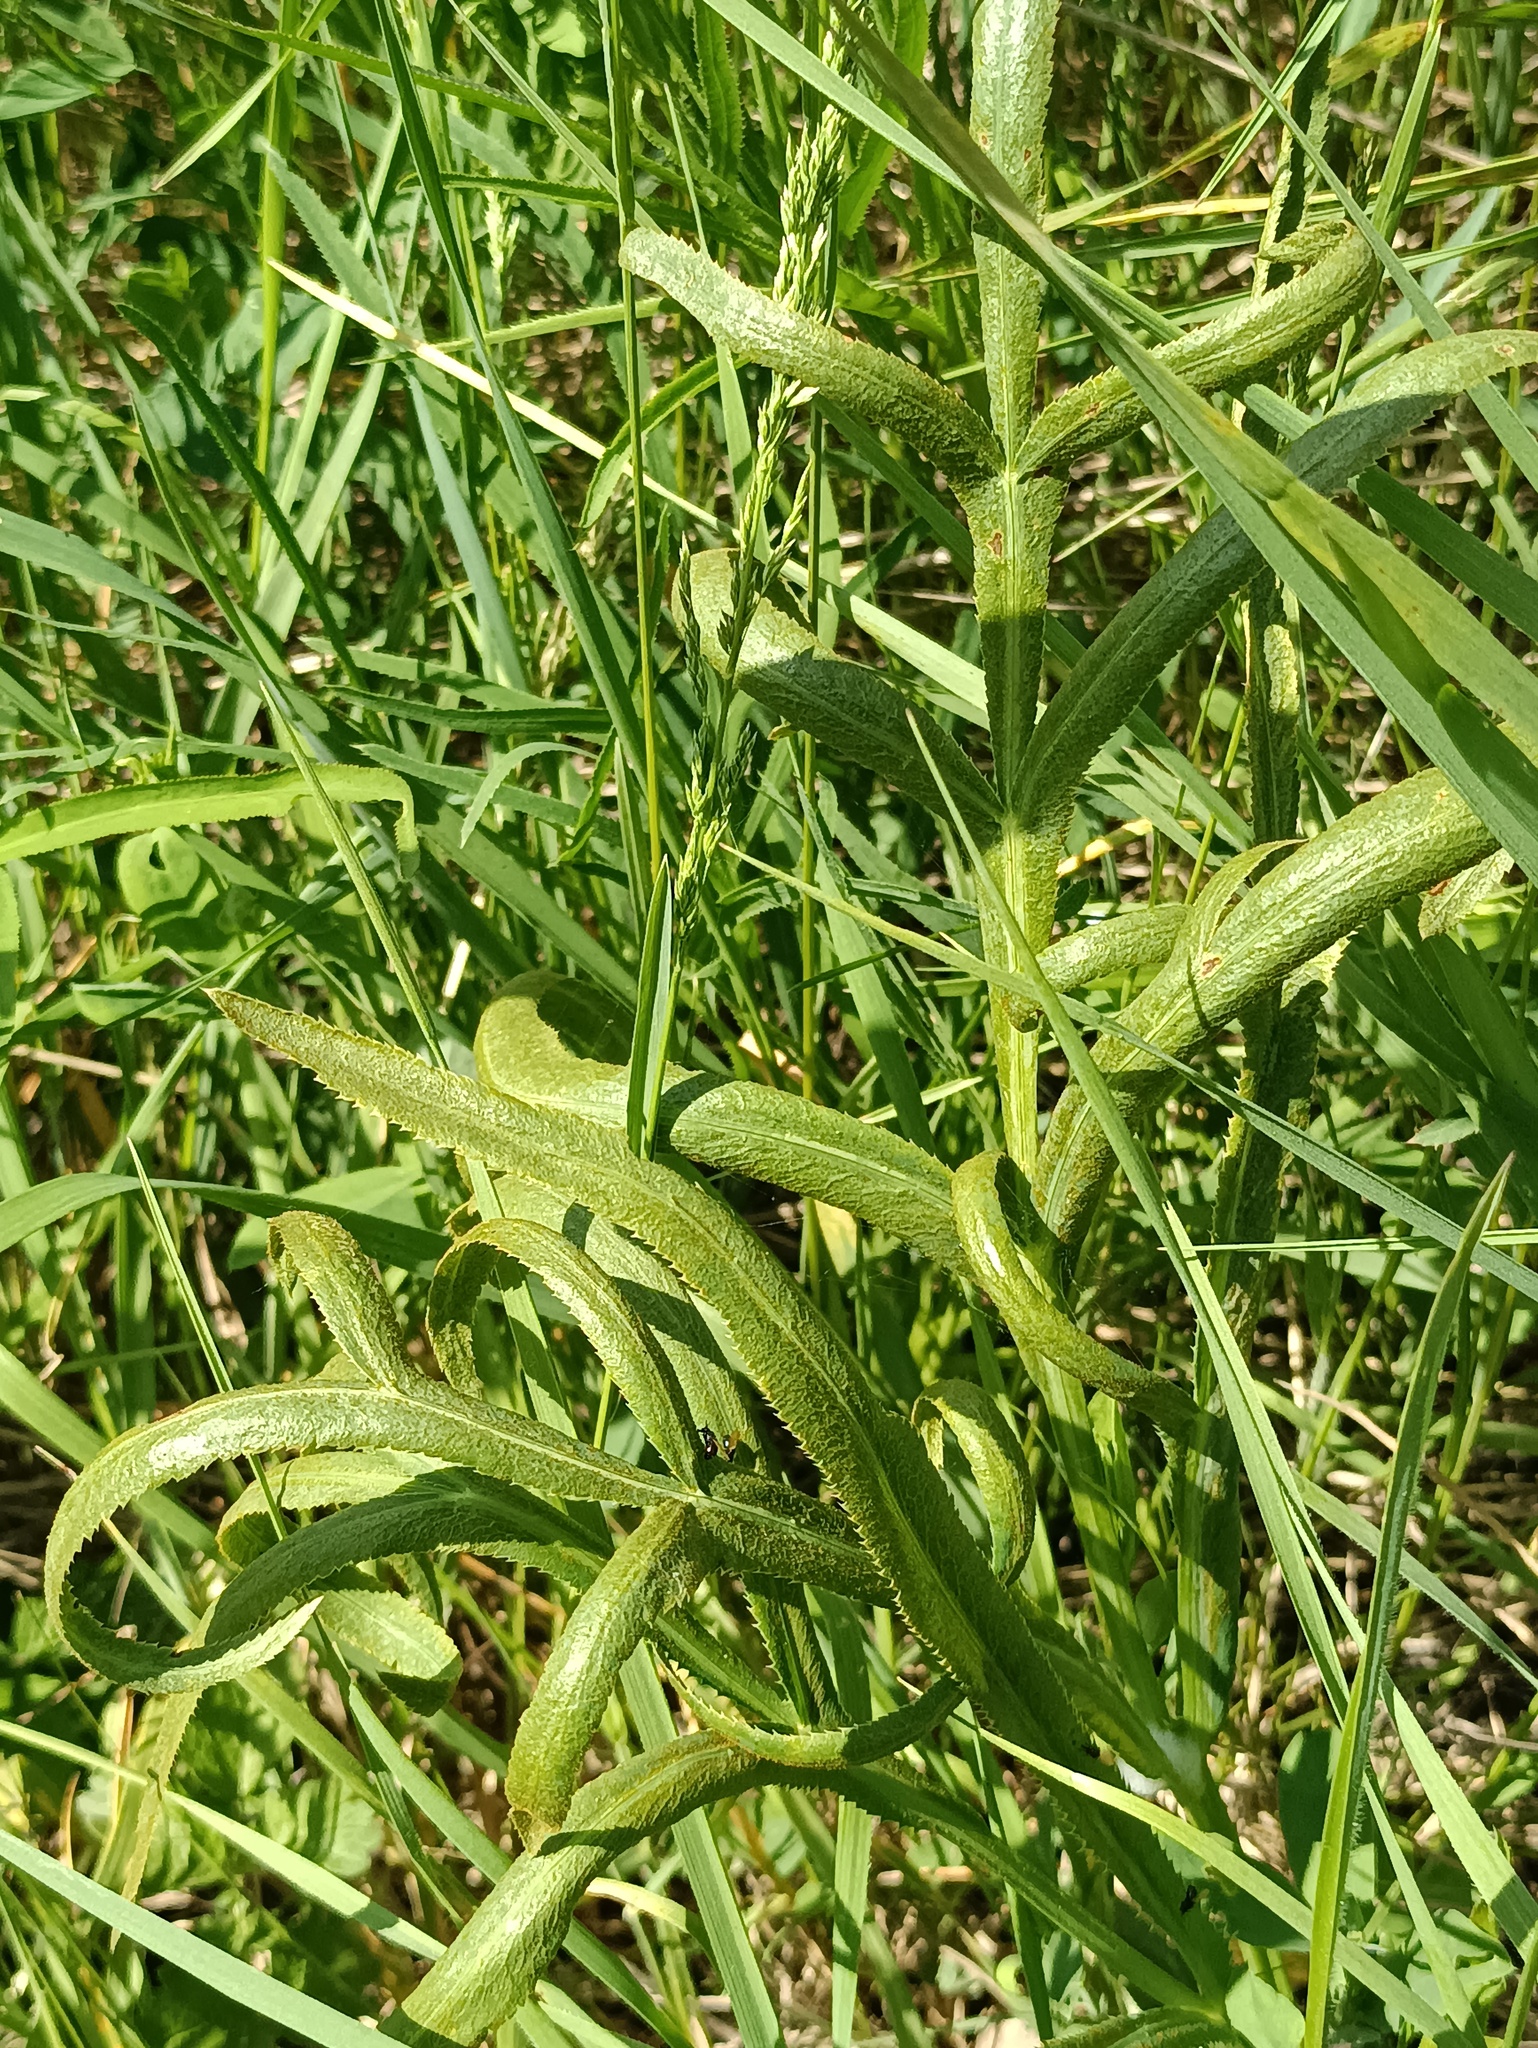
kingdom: Plantae
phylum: Tracheophyta
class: Magnoliopsida
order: Apiales
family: Apiaceae
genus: Falcaria
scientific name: Falcaria vulgaris
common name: Longleaf
